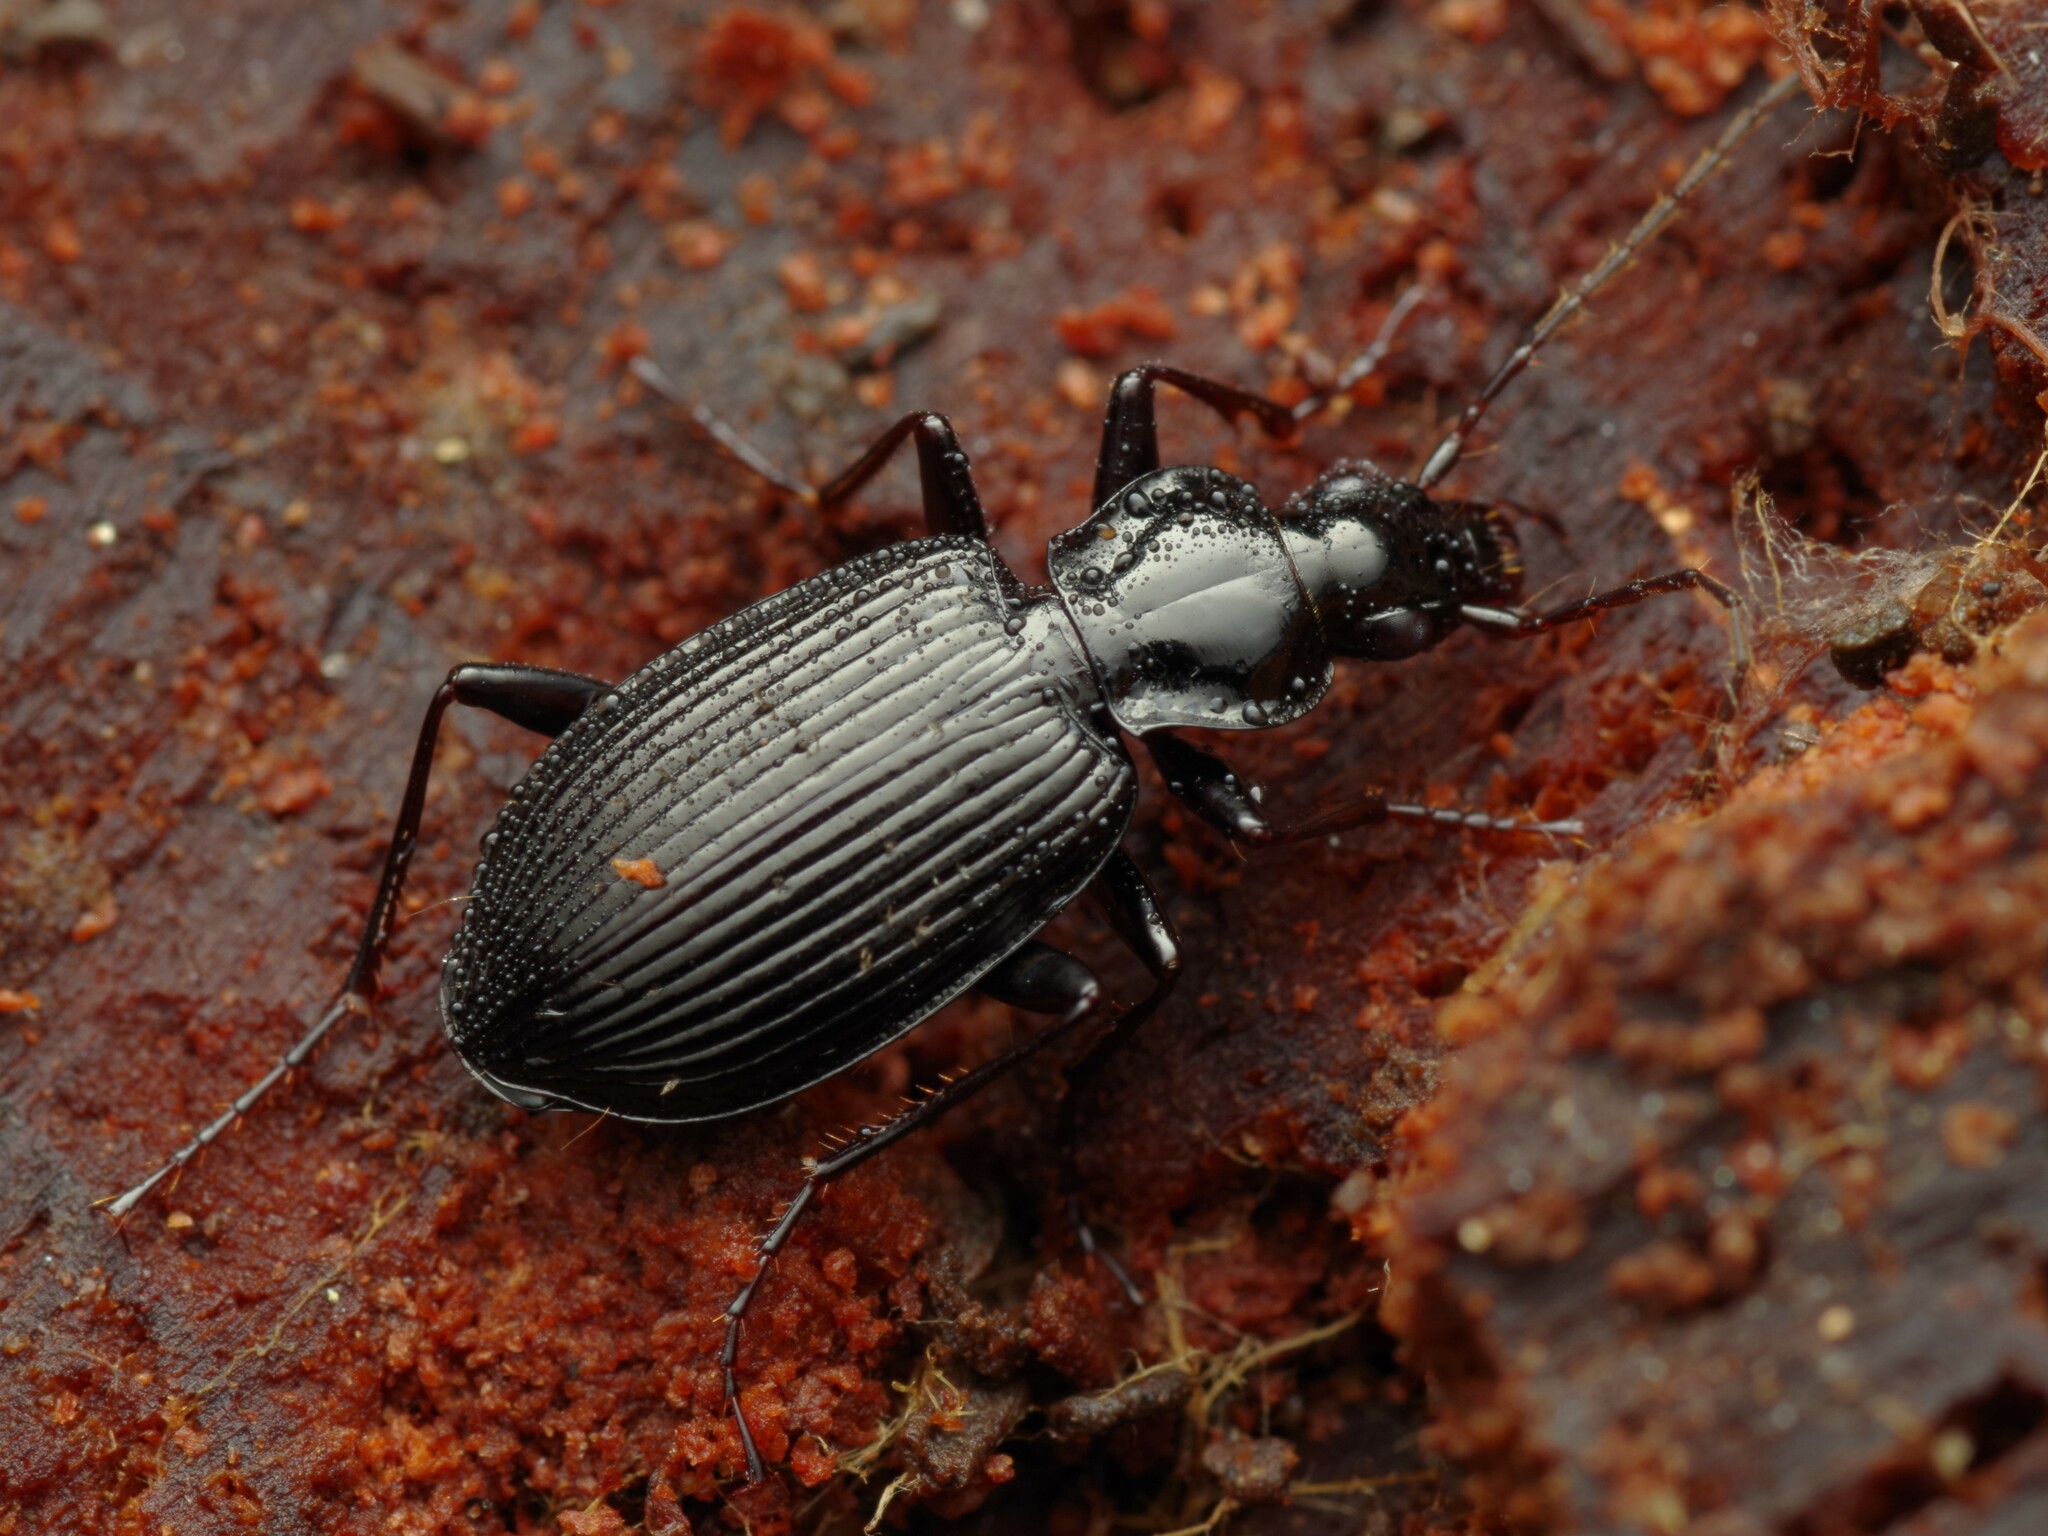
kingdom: Animalia
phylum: Arthropoda
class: Insecta
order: Coleoptera
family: Carabidae
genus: Platynus
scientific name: Platynus assimilis
